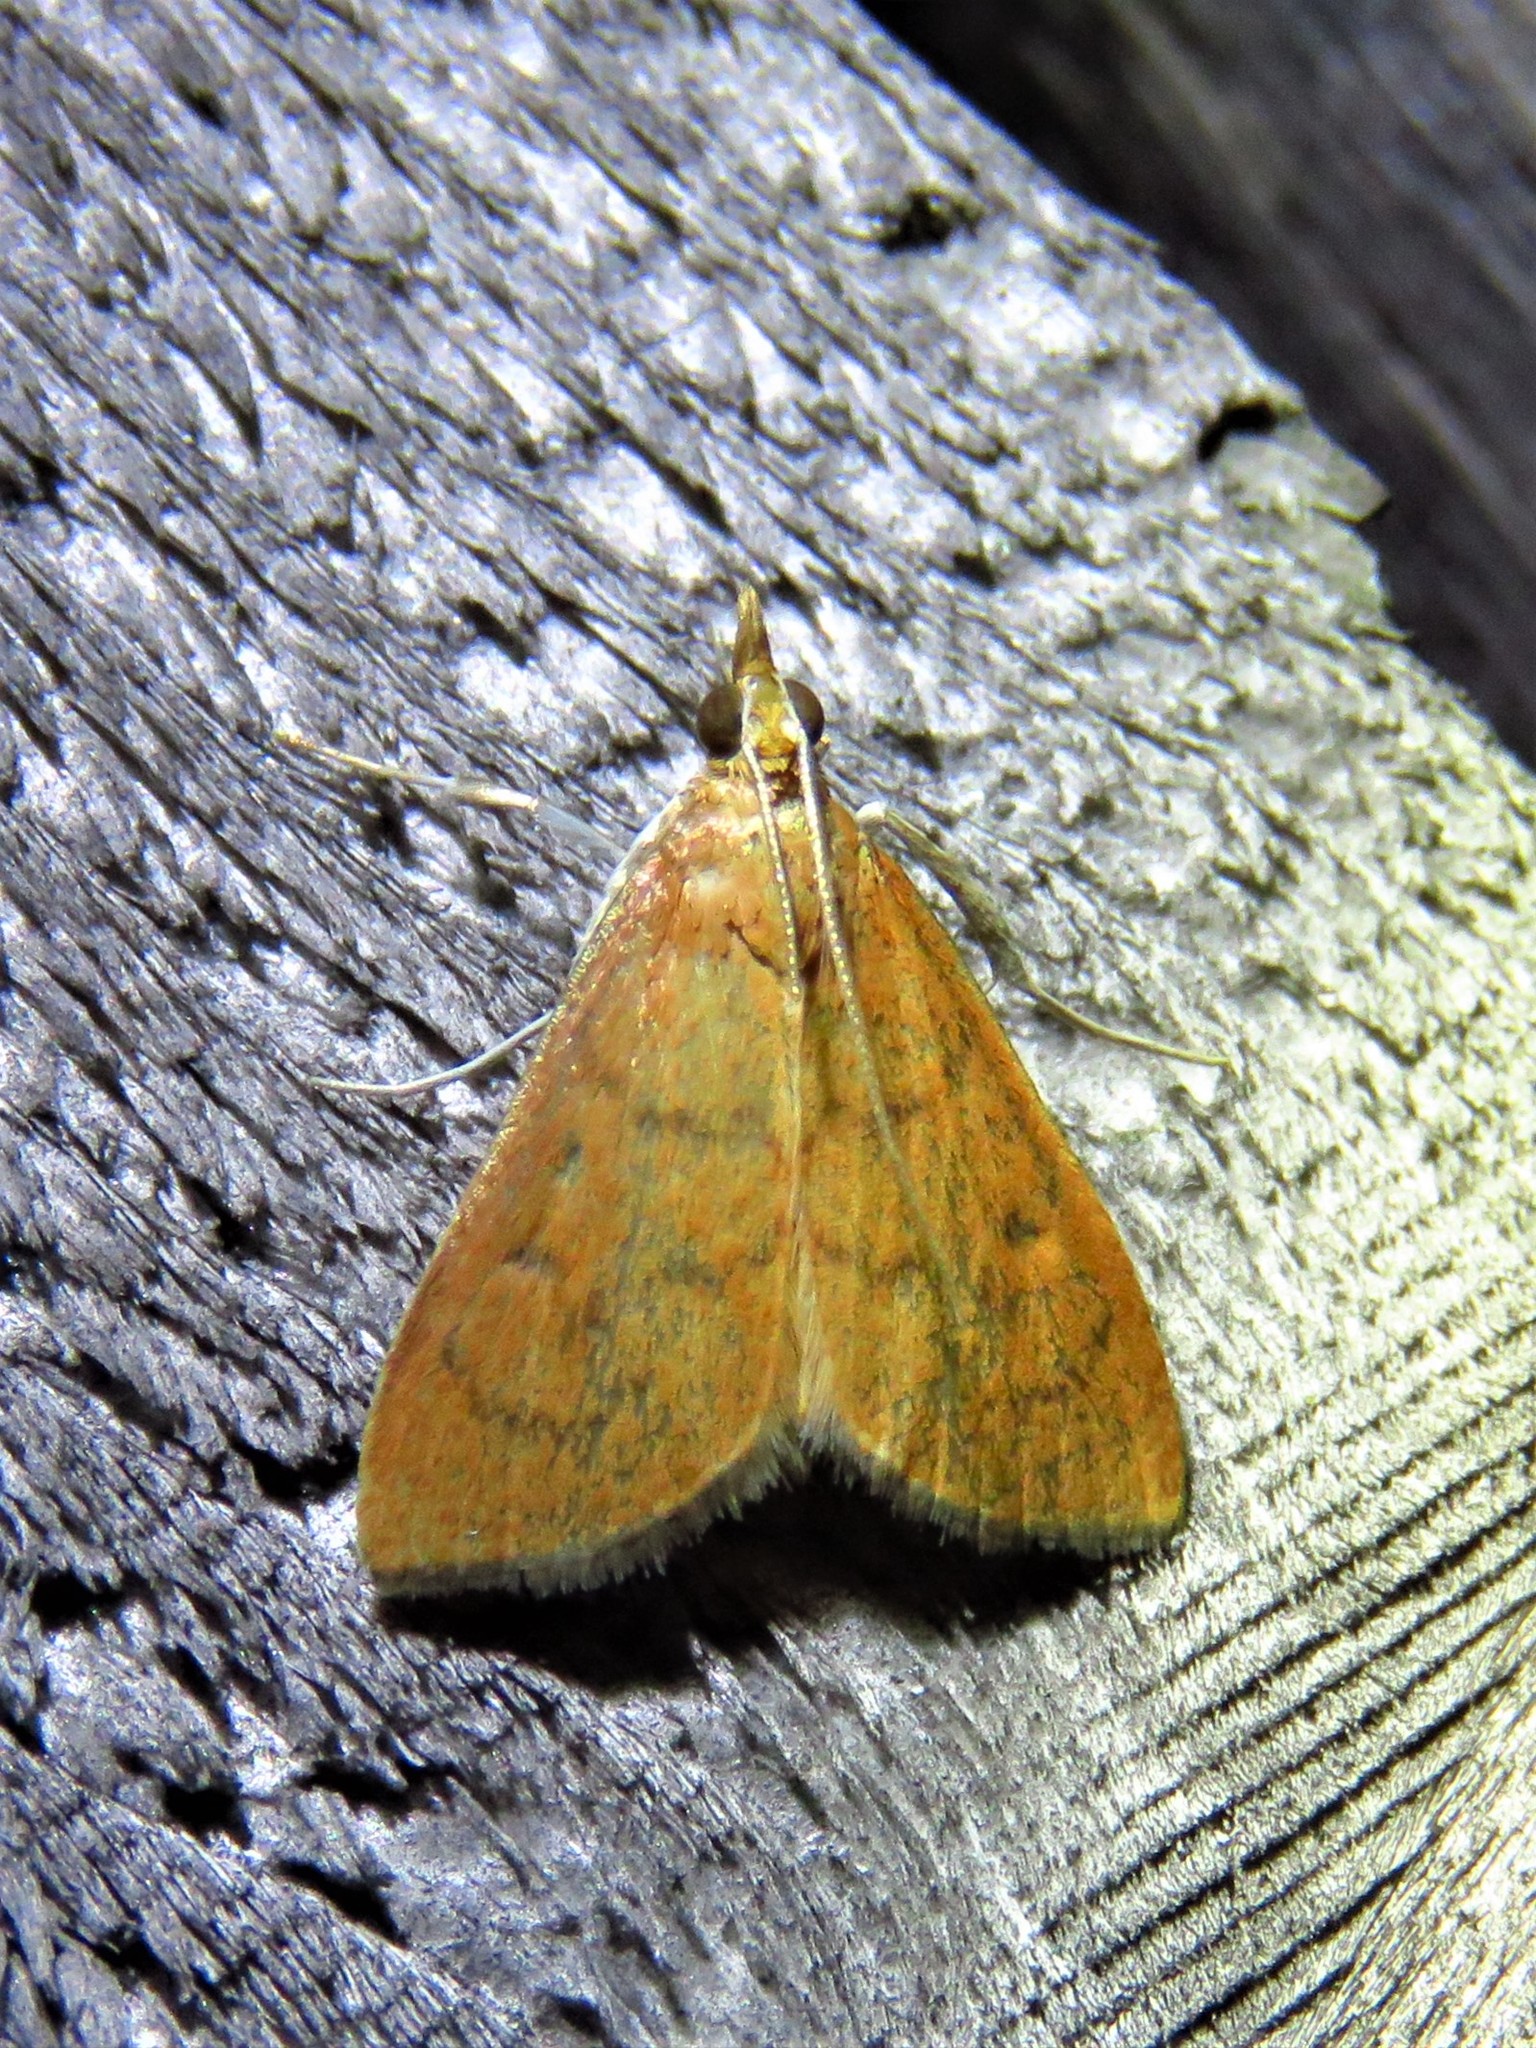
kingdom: Animalia
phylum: Arthropoda
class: Insecta
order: Lepidoptera
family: Crambidae
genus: Oenobotys
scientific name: Oenobotys vinotinctalis
